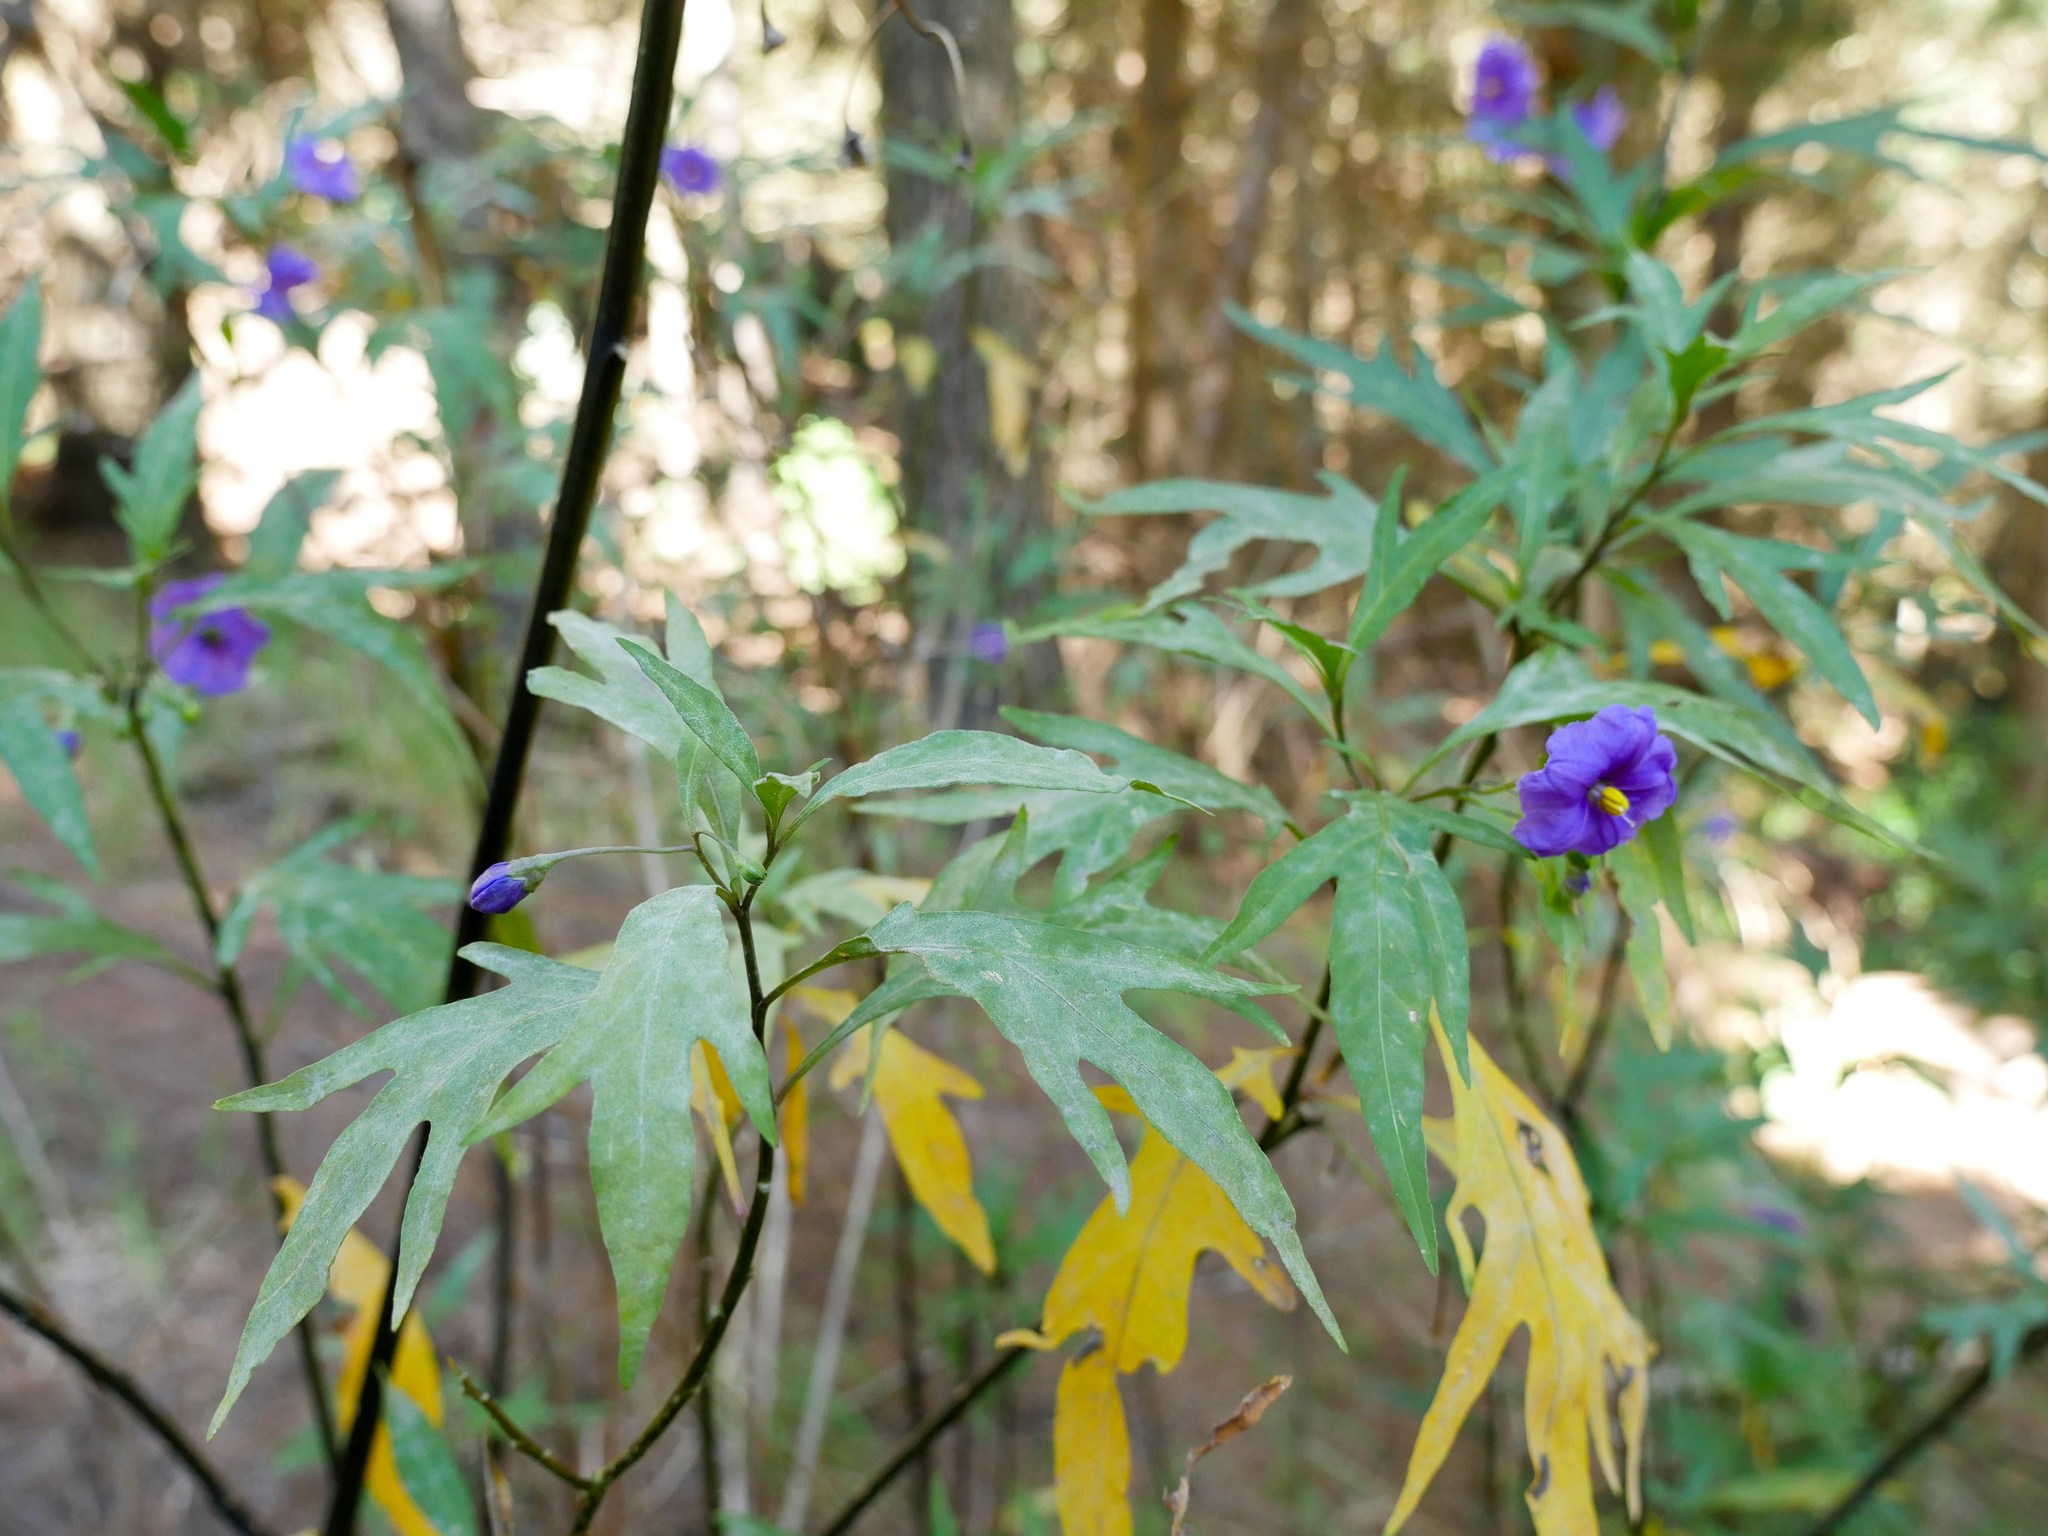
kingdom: Plantae
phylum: Tracheophyta
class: Magnoliopsida
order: Solanales
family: Solanaceae
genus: Solanum
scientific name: Solanum laciniatum
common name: Kangaroo-apple
